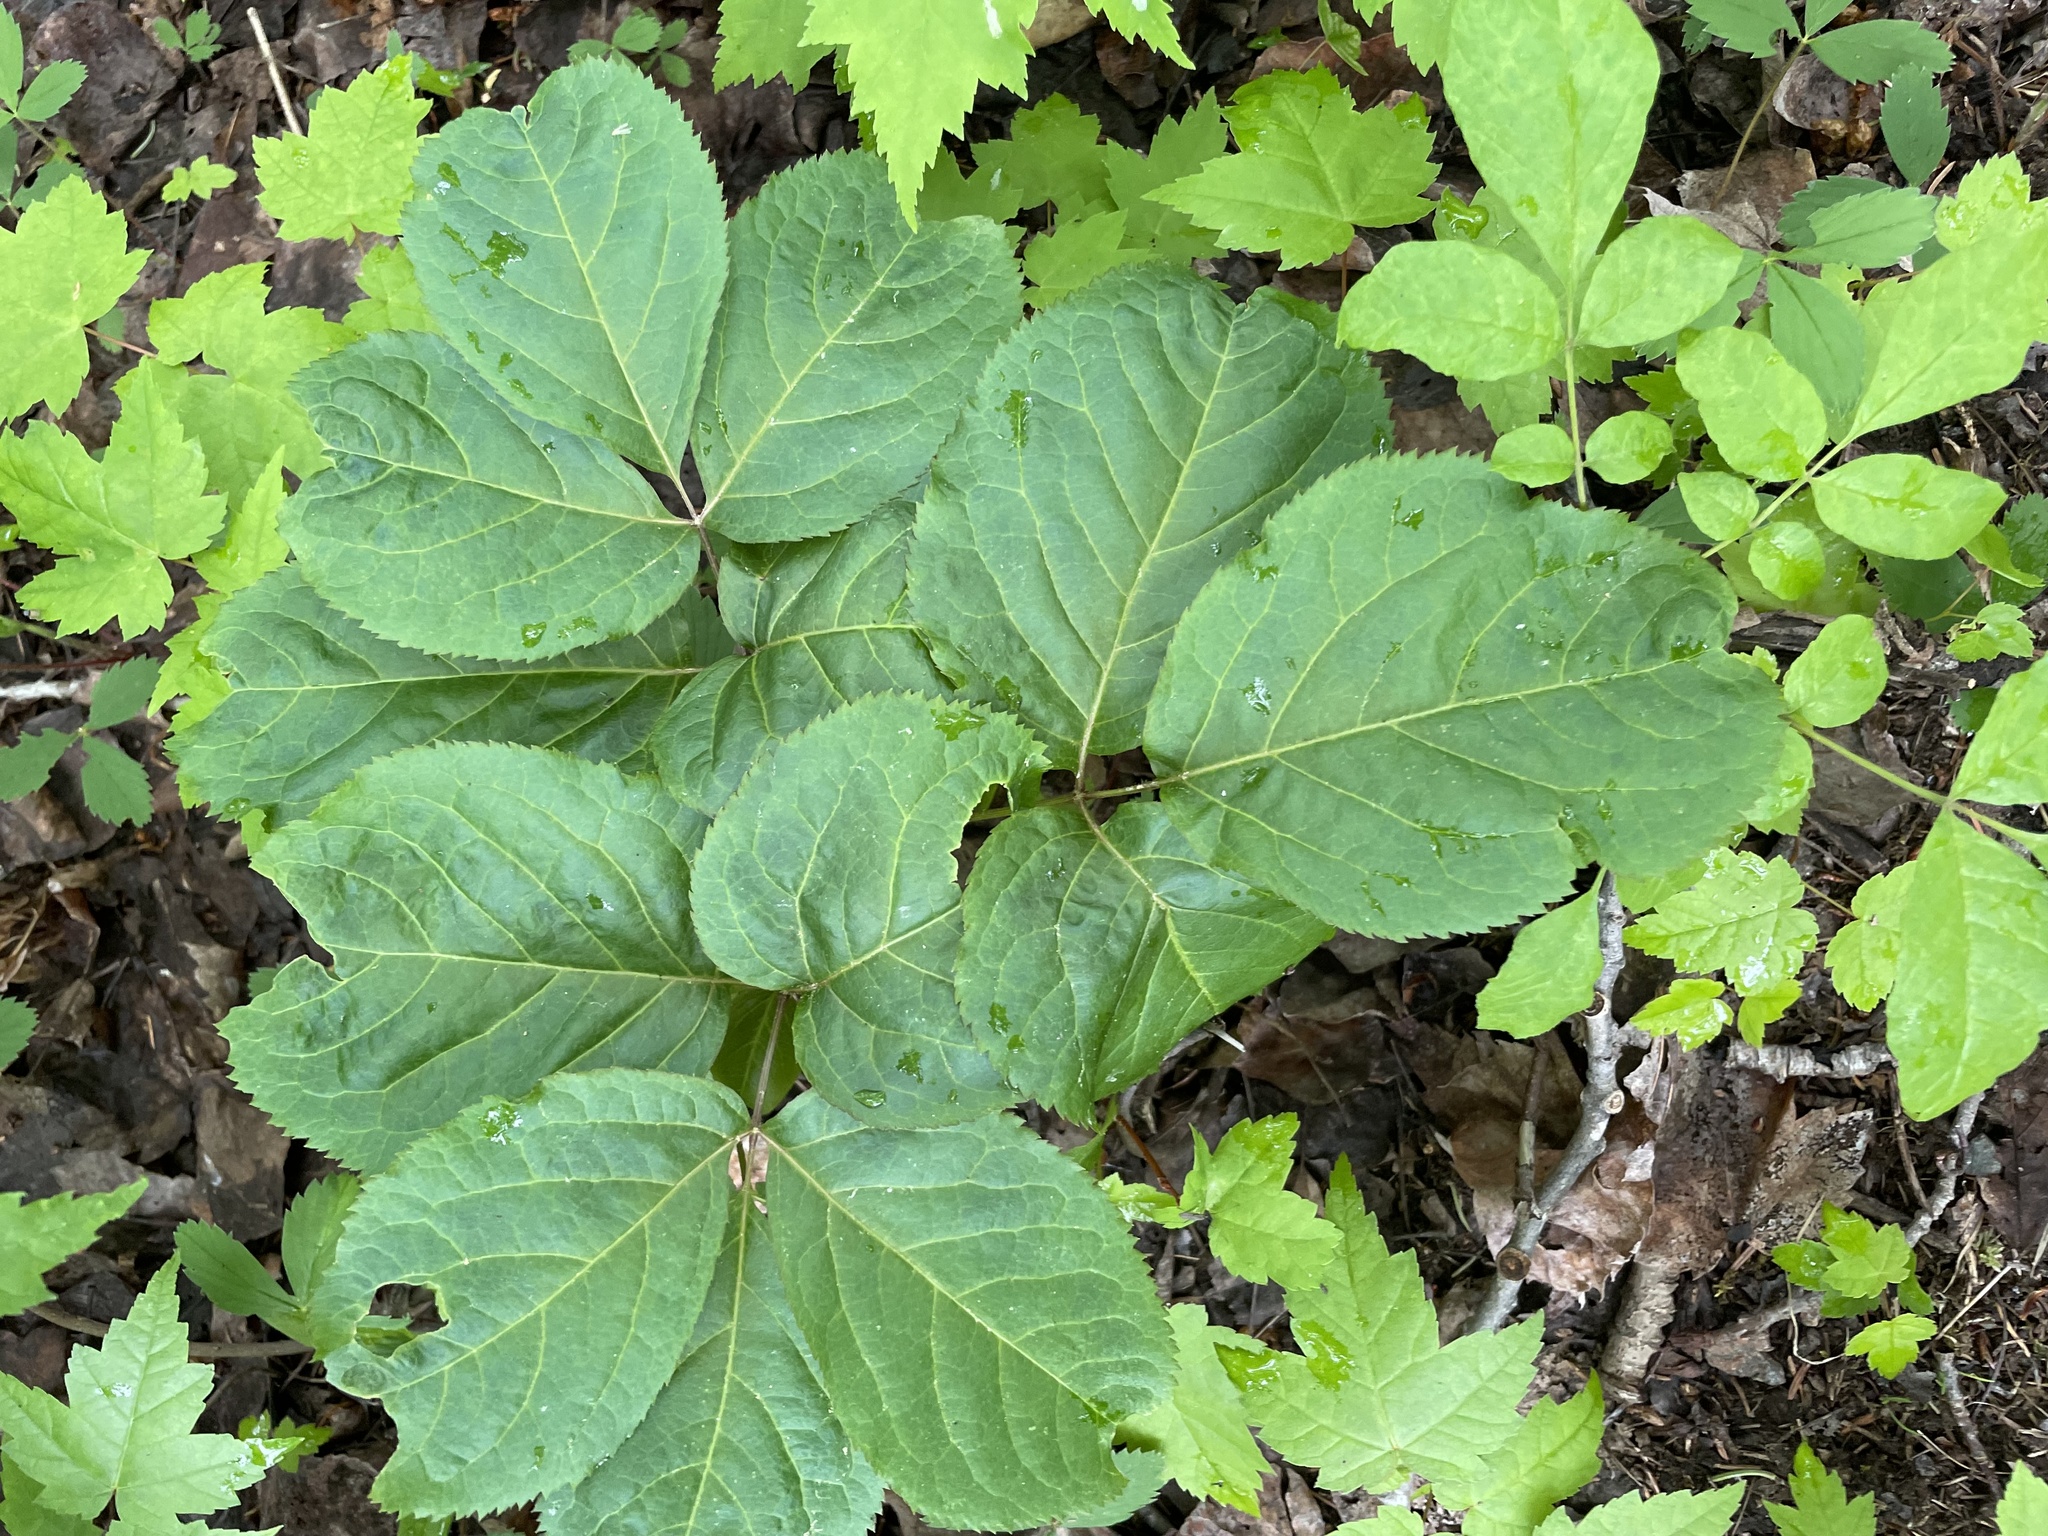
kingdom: Plantae
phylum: Tracheophyta
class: Magnoliopsida
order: Apiales
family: Araliaceae
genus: Aralia
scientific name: Aralia nudicaulis
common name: Wild sarsaparilla
